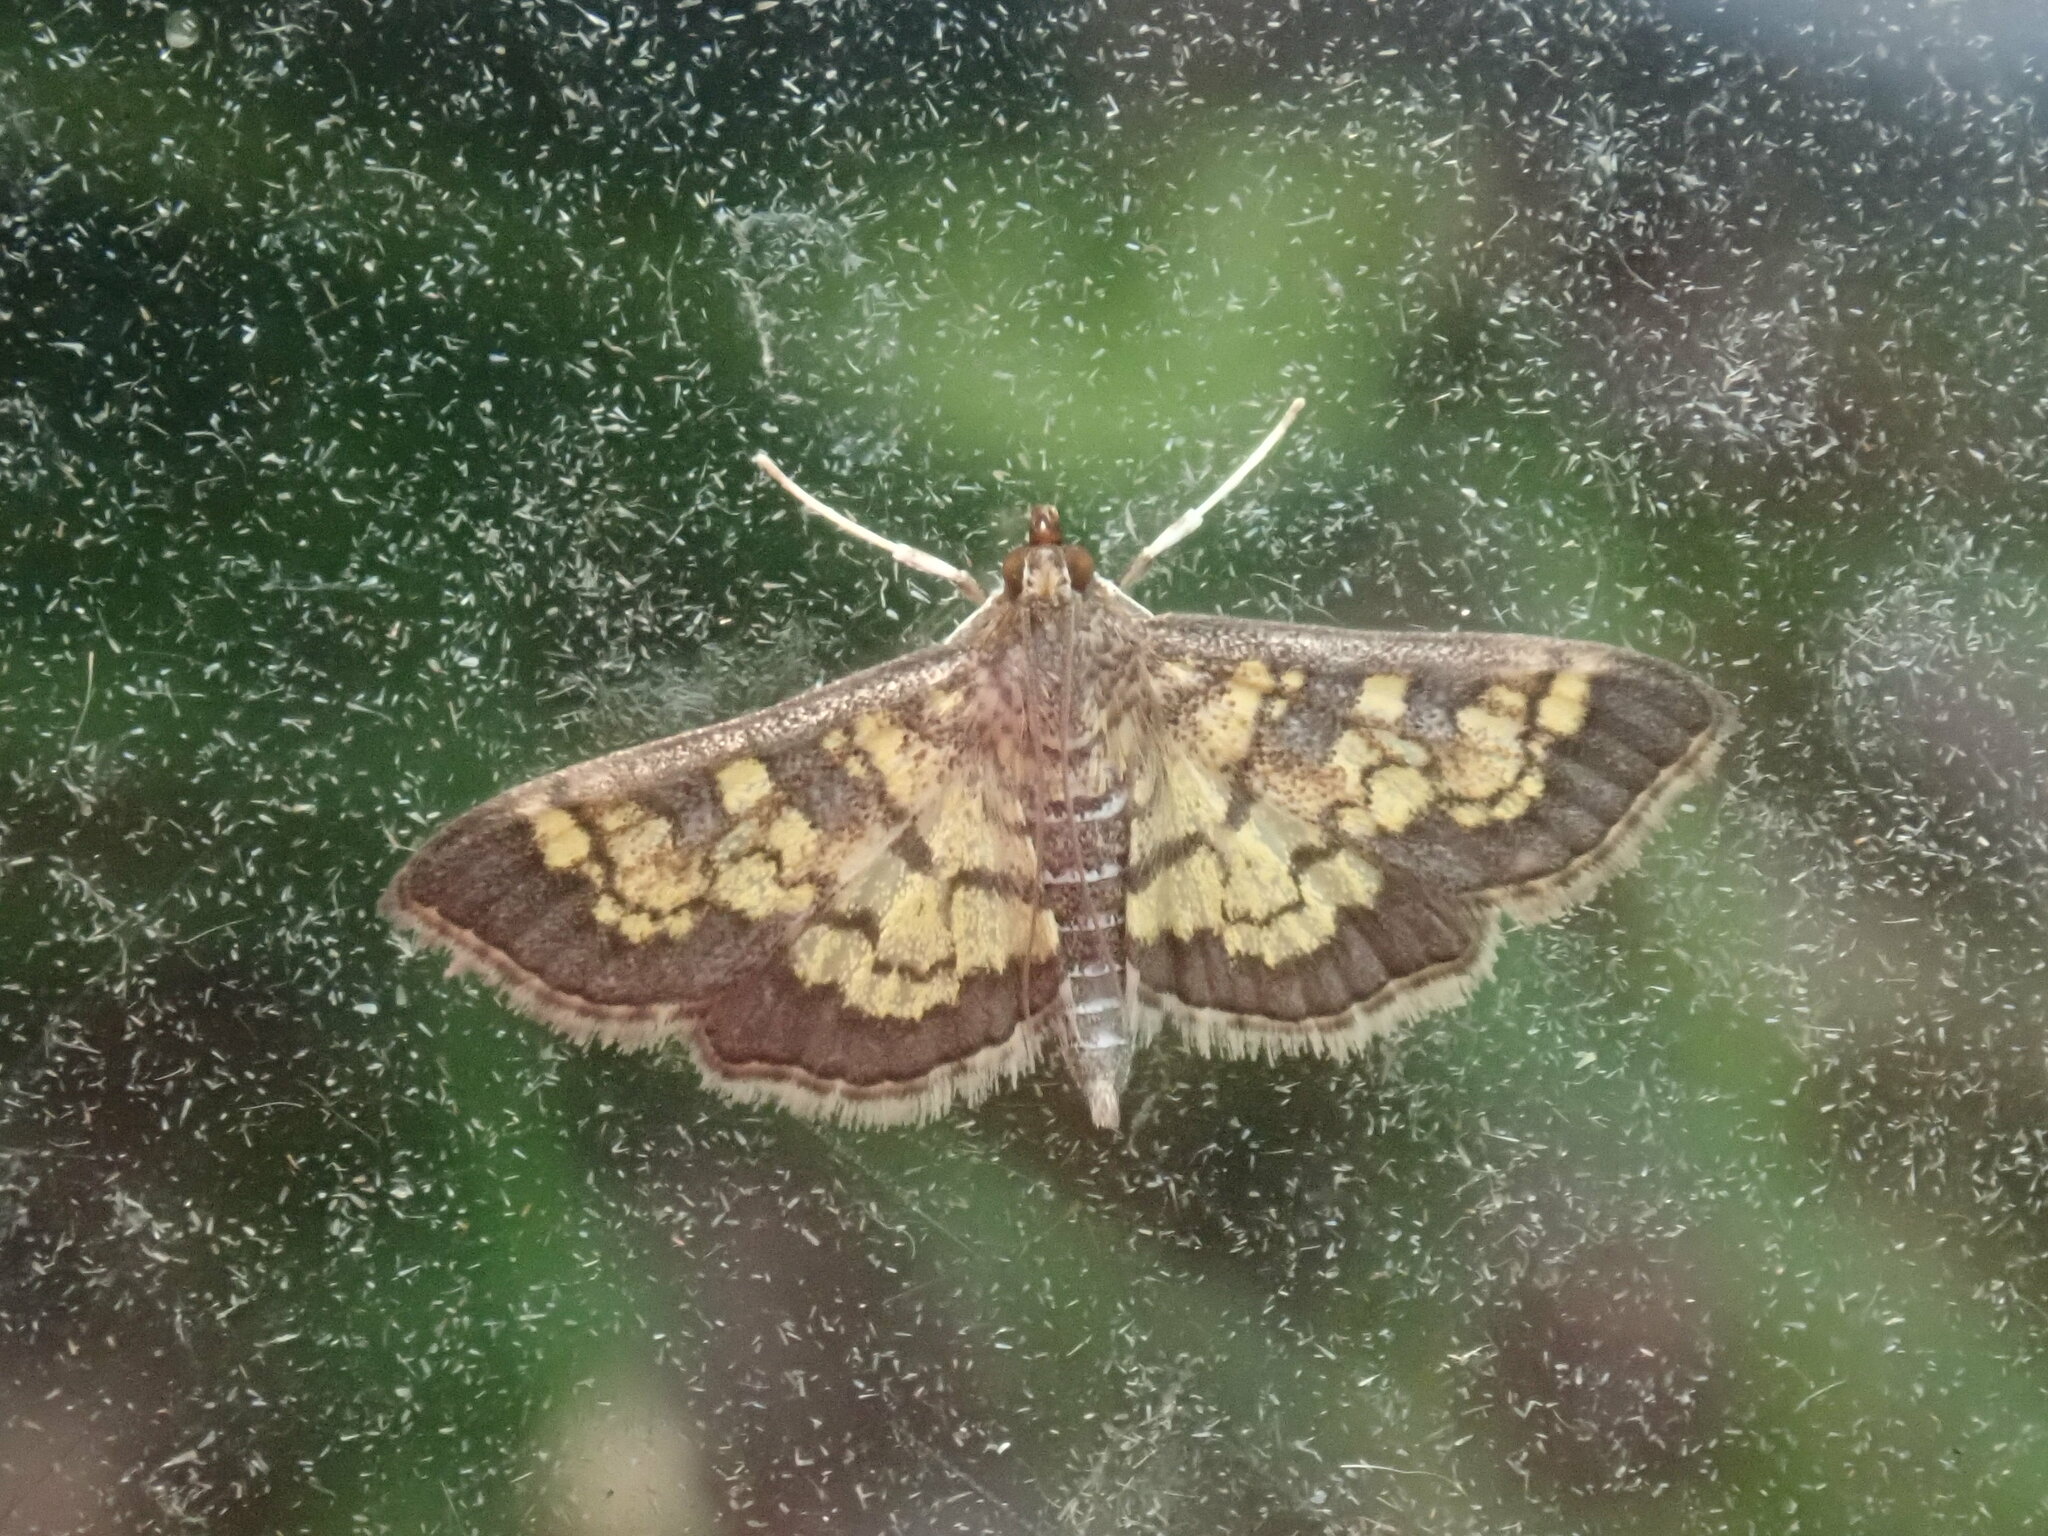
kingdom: Animalia
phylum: Arthropoda
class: Insecta
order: Lepidoptera
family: Crambidae
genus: Epipagis
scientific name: Epipagis adipaloides
